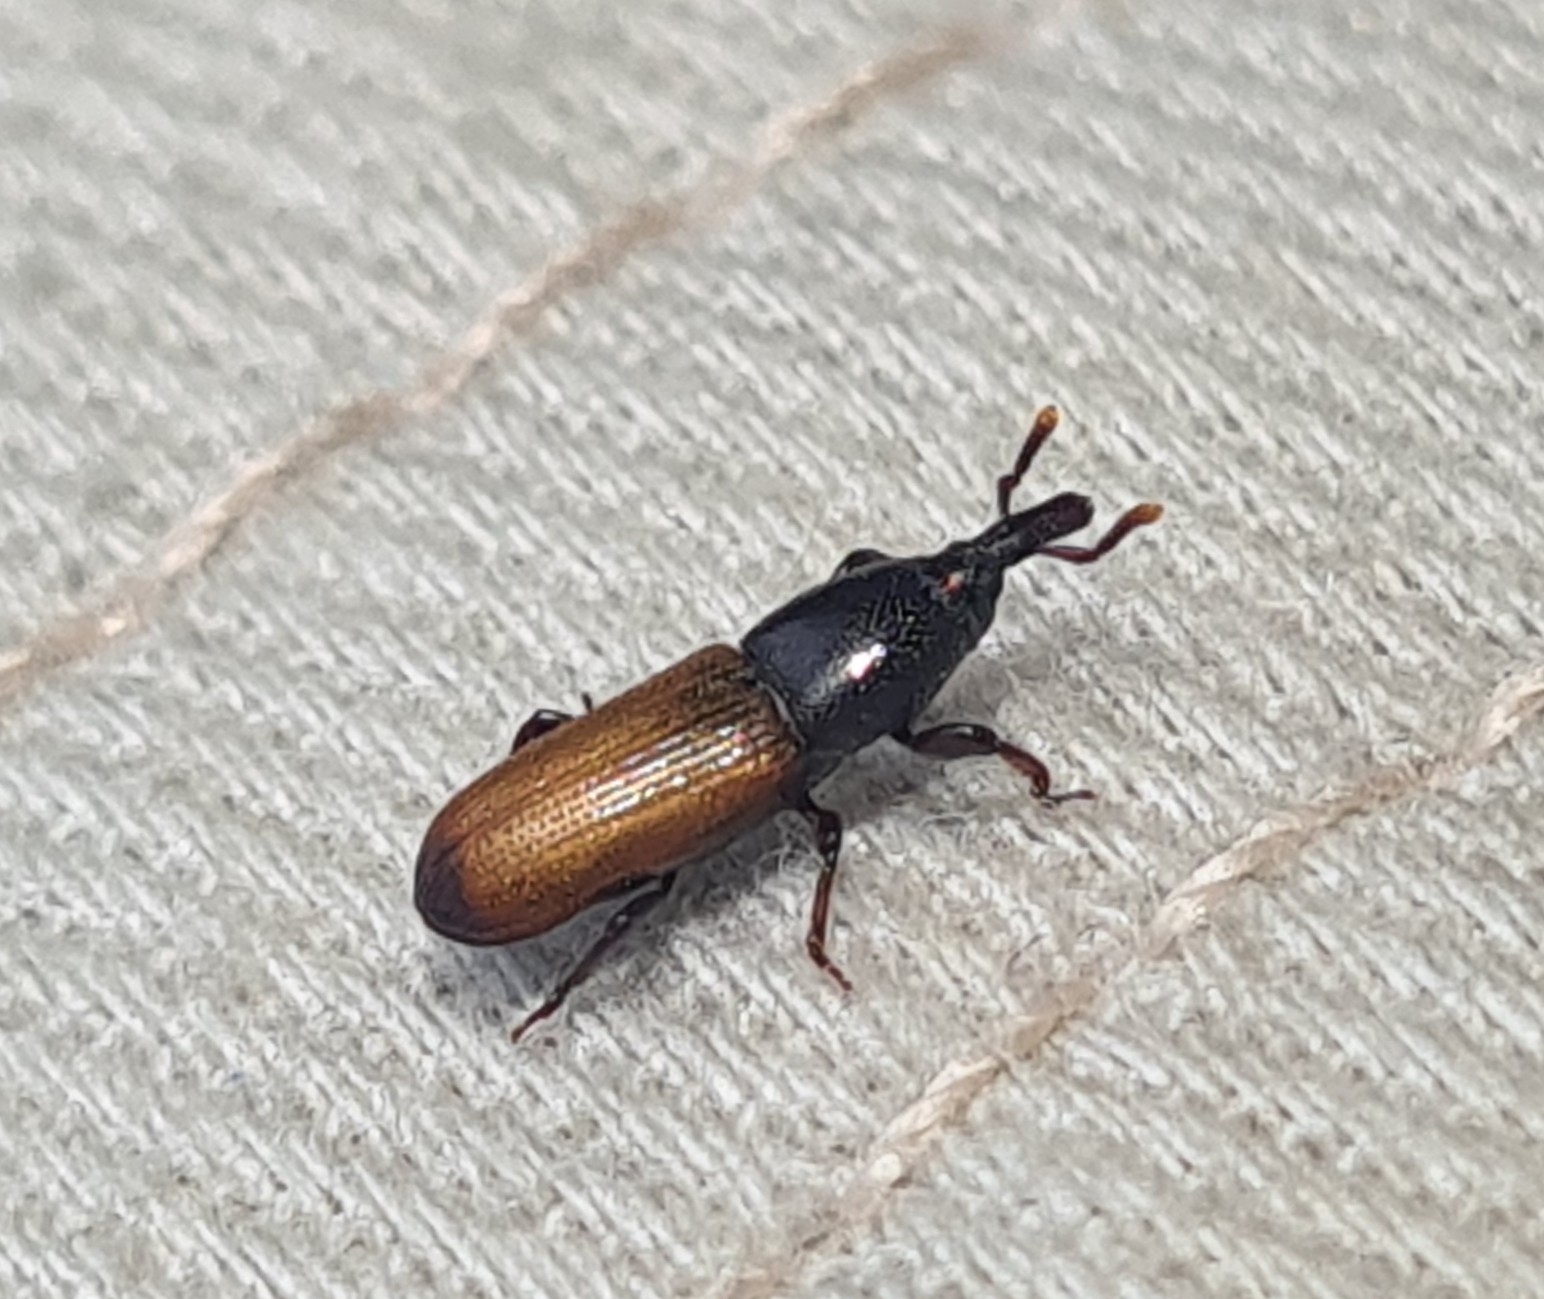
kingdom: Animalia
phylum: Arthropoda
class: Insecta
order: Coleoptera
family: Curculionidae
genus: Mesites
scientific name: Mesites pallidipennis
